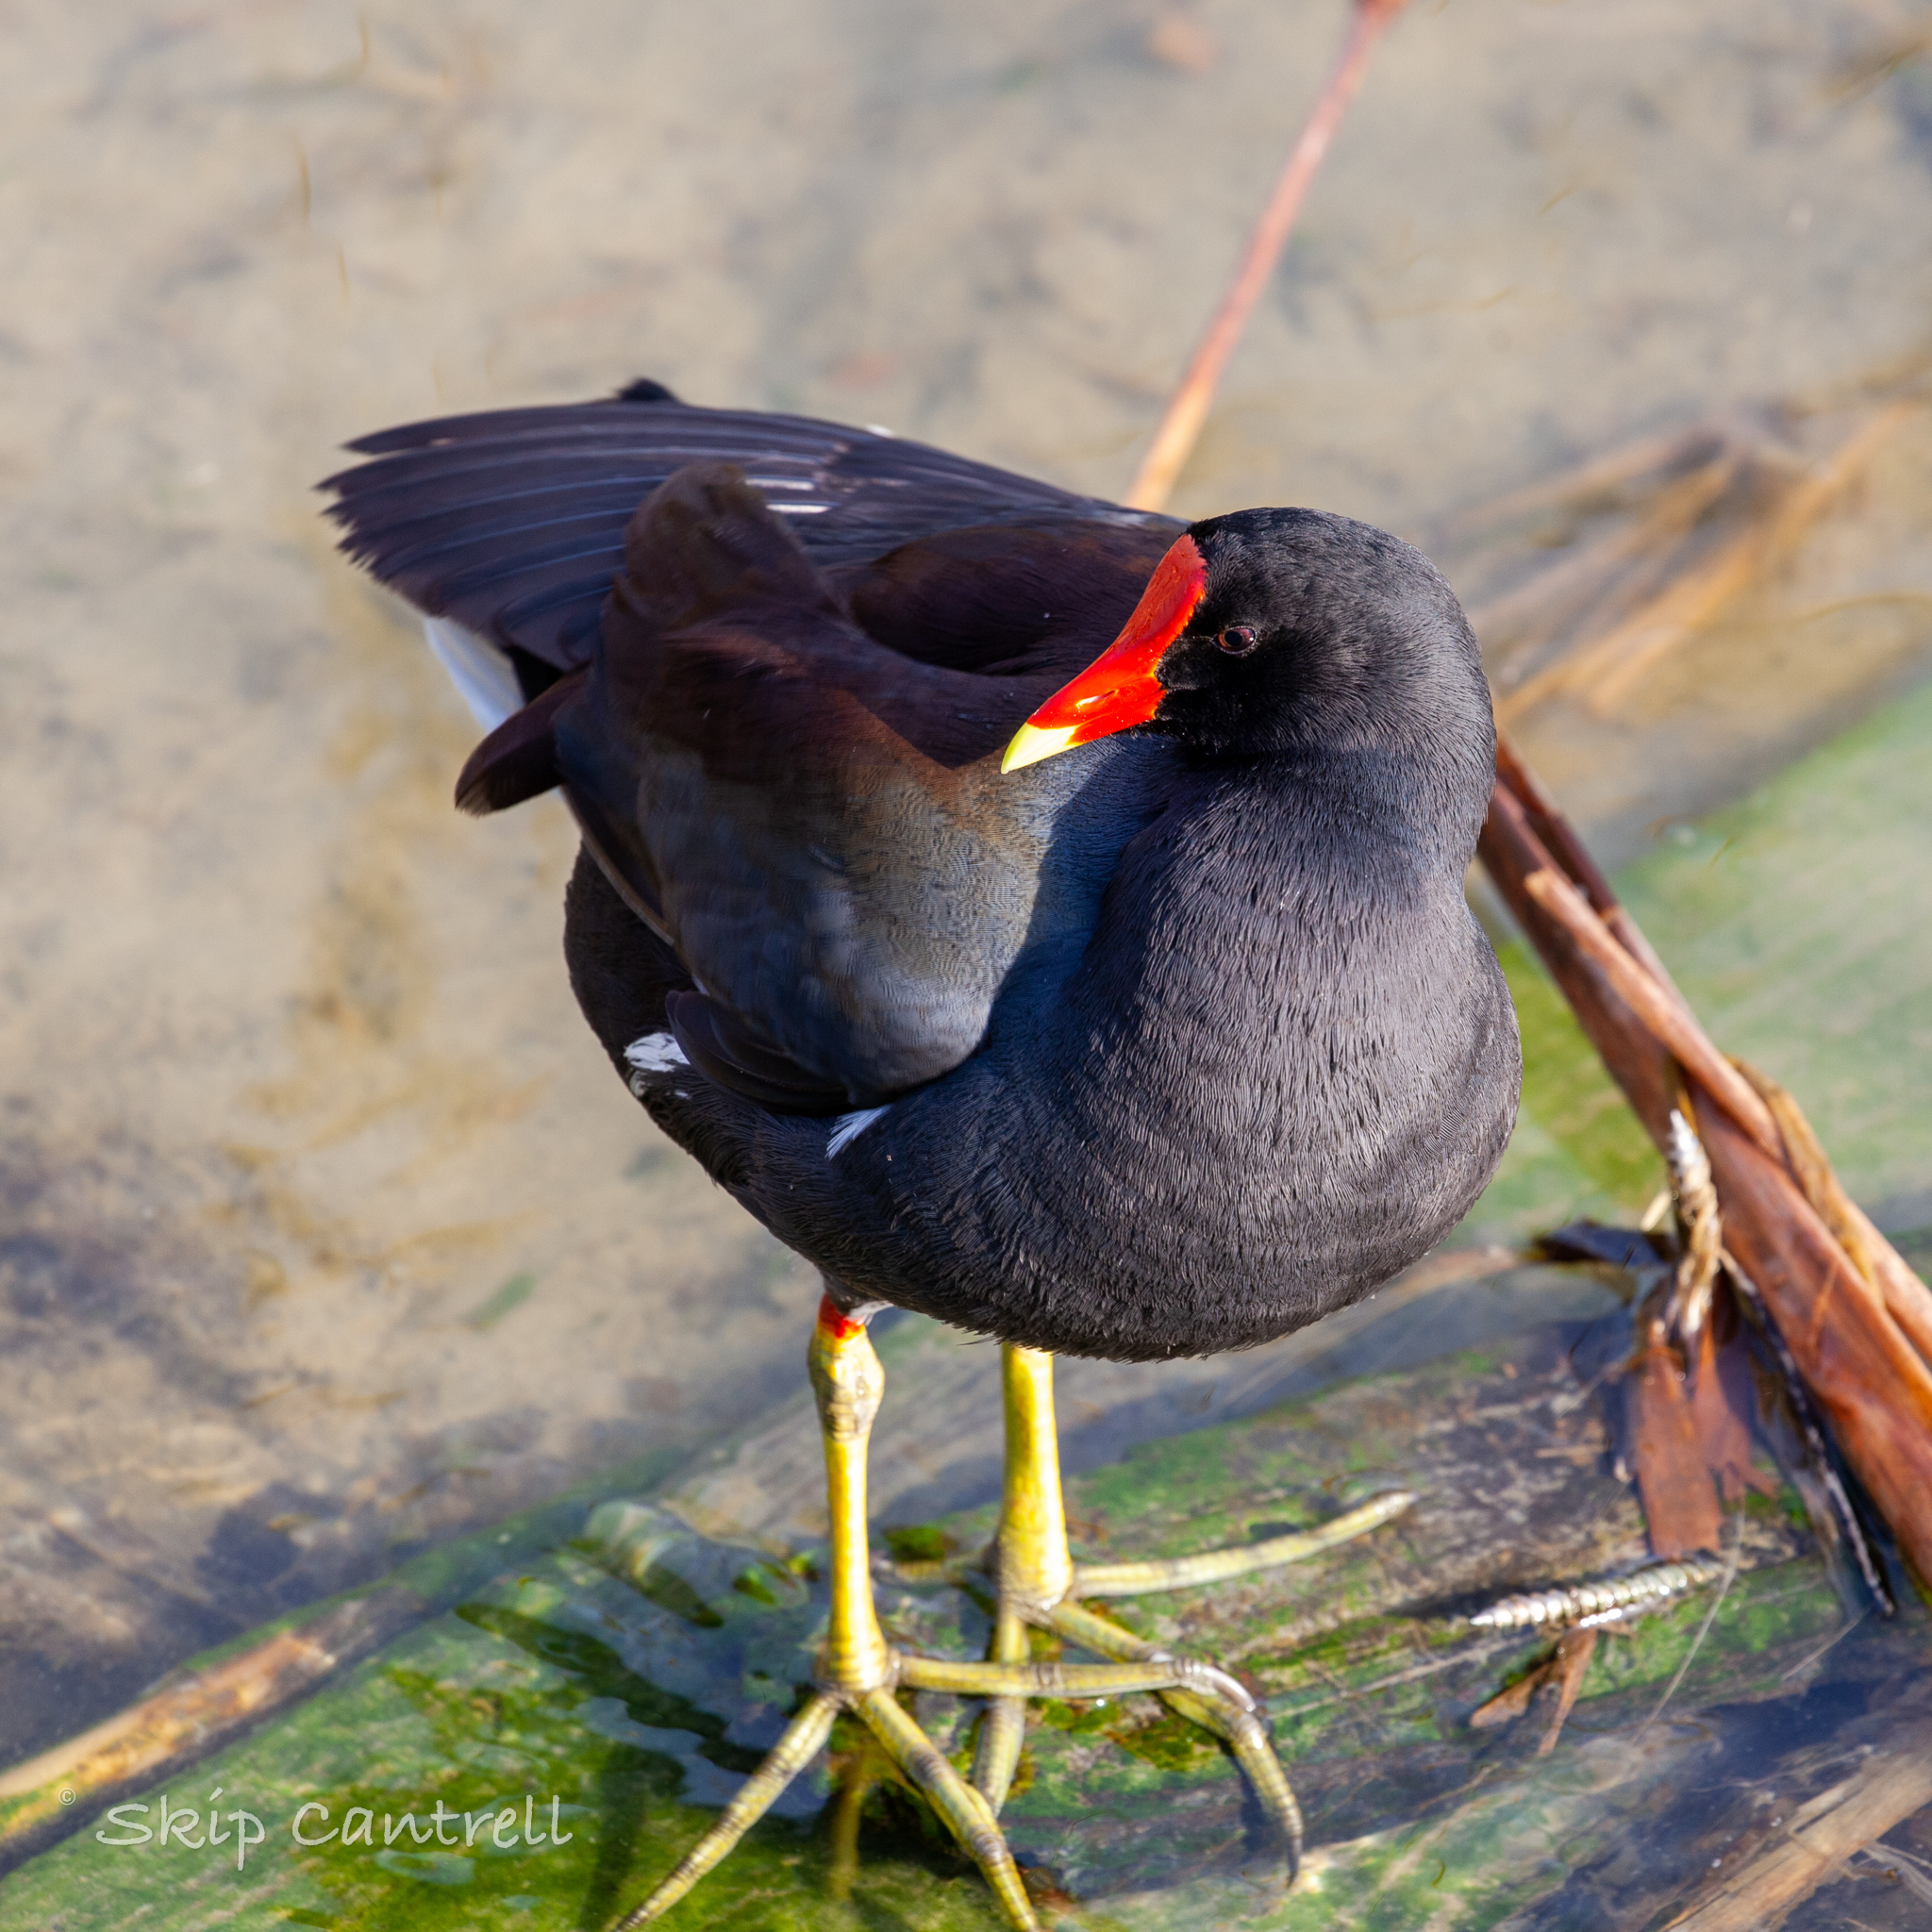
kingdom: Animalia
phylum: Chordata
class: Aves
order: Gruiformes
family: Rallidae
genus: Gallinula
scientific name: Gallinula chloropus
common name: Common moorhen
